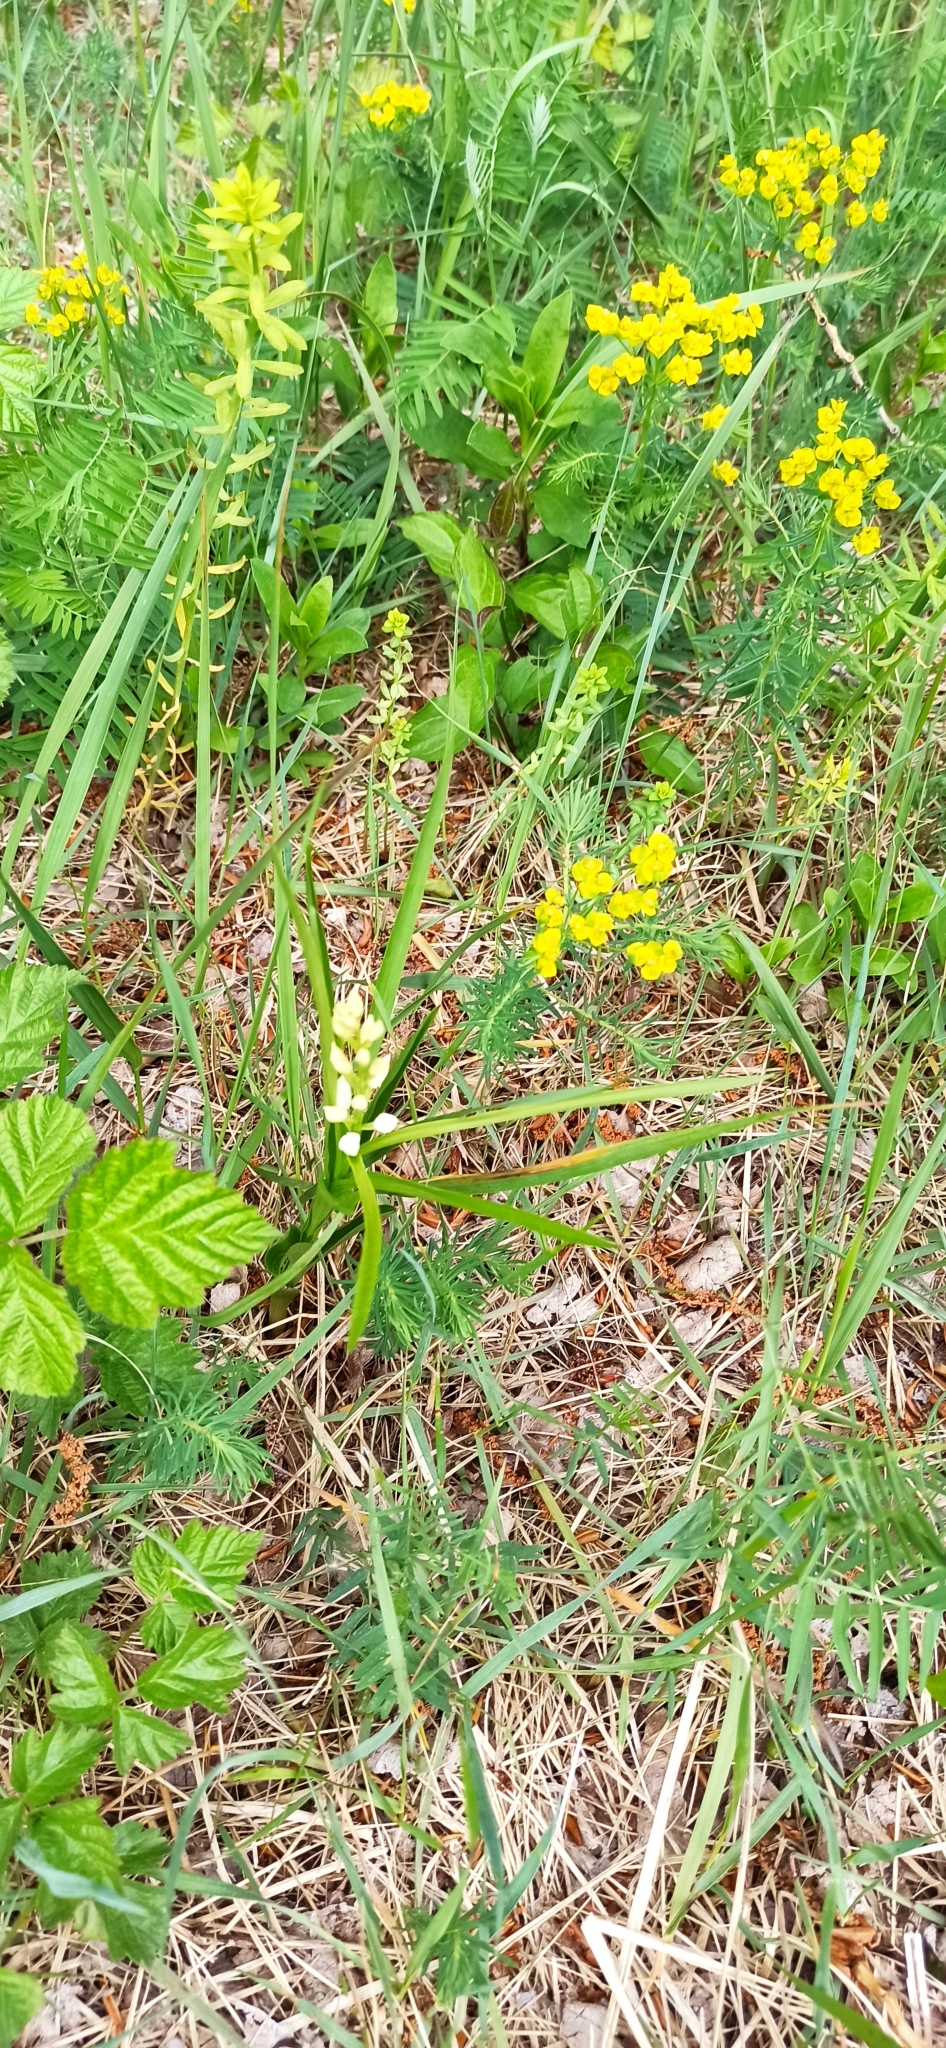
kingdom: Plantae
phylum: Tracheophyta
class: Liliopsida
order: Asparagales
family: Orchidaceae
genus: Cephalanthera
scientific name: Cephalanthera longifolia
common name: Narrow-leaved helleborine
